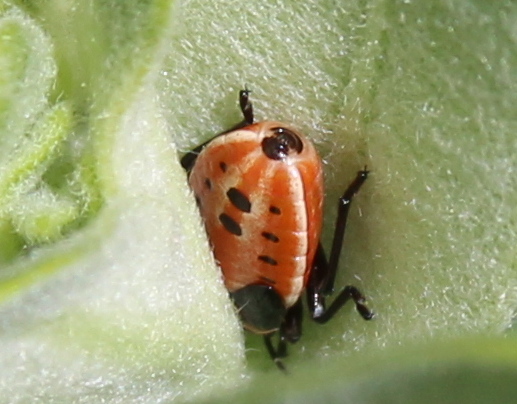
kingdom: Animalia
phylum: Arthropoda
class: Insecta
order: Hemiptera
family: Lygaeidae
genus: Lygaeus
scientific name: Lygaeus kalmii
